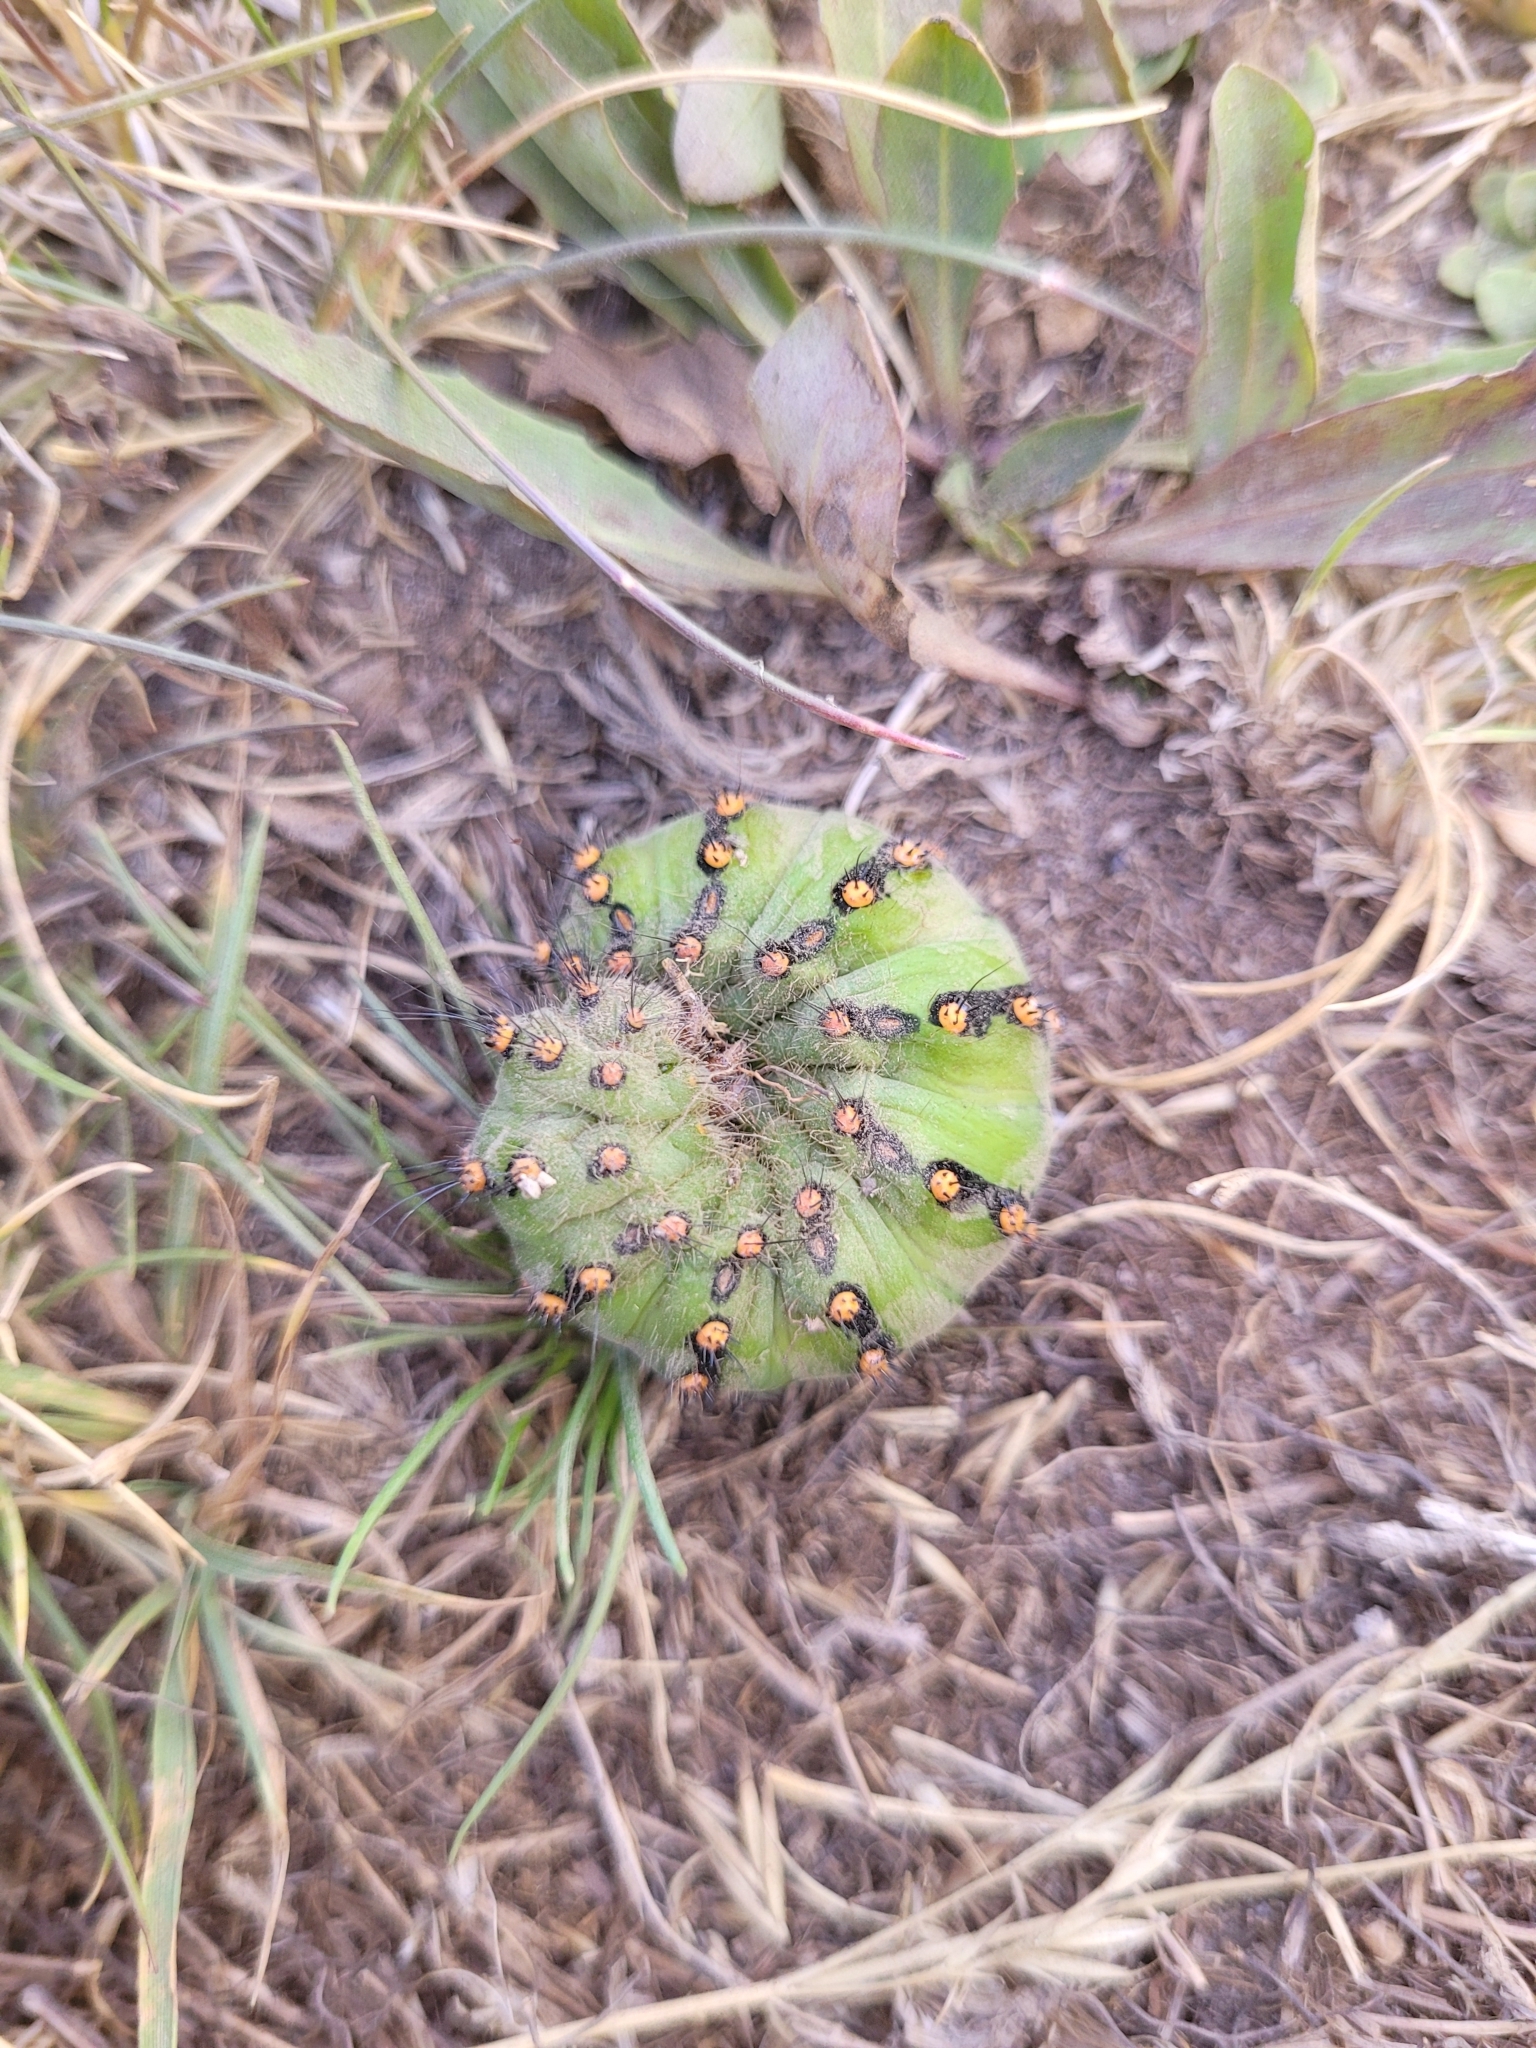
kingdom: Animalia
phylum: Arthropoda
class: Insecta
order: Lepidoptera
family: Saturniidae
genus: Saturnia
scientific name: Saturnia pavonia
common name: Emperor moth
